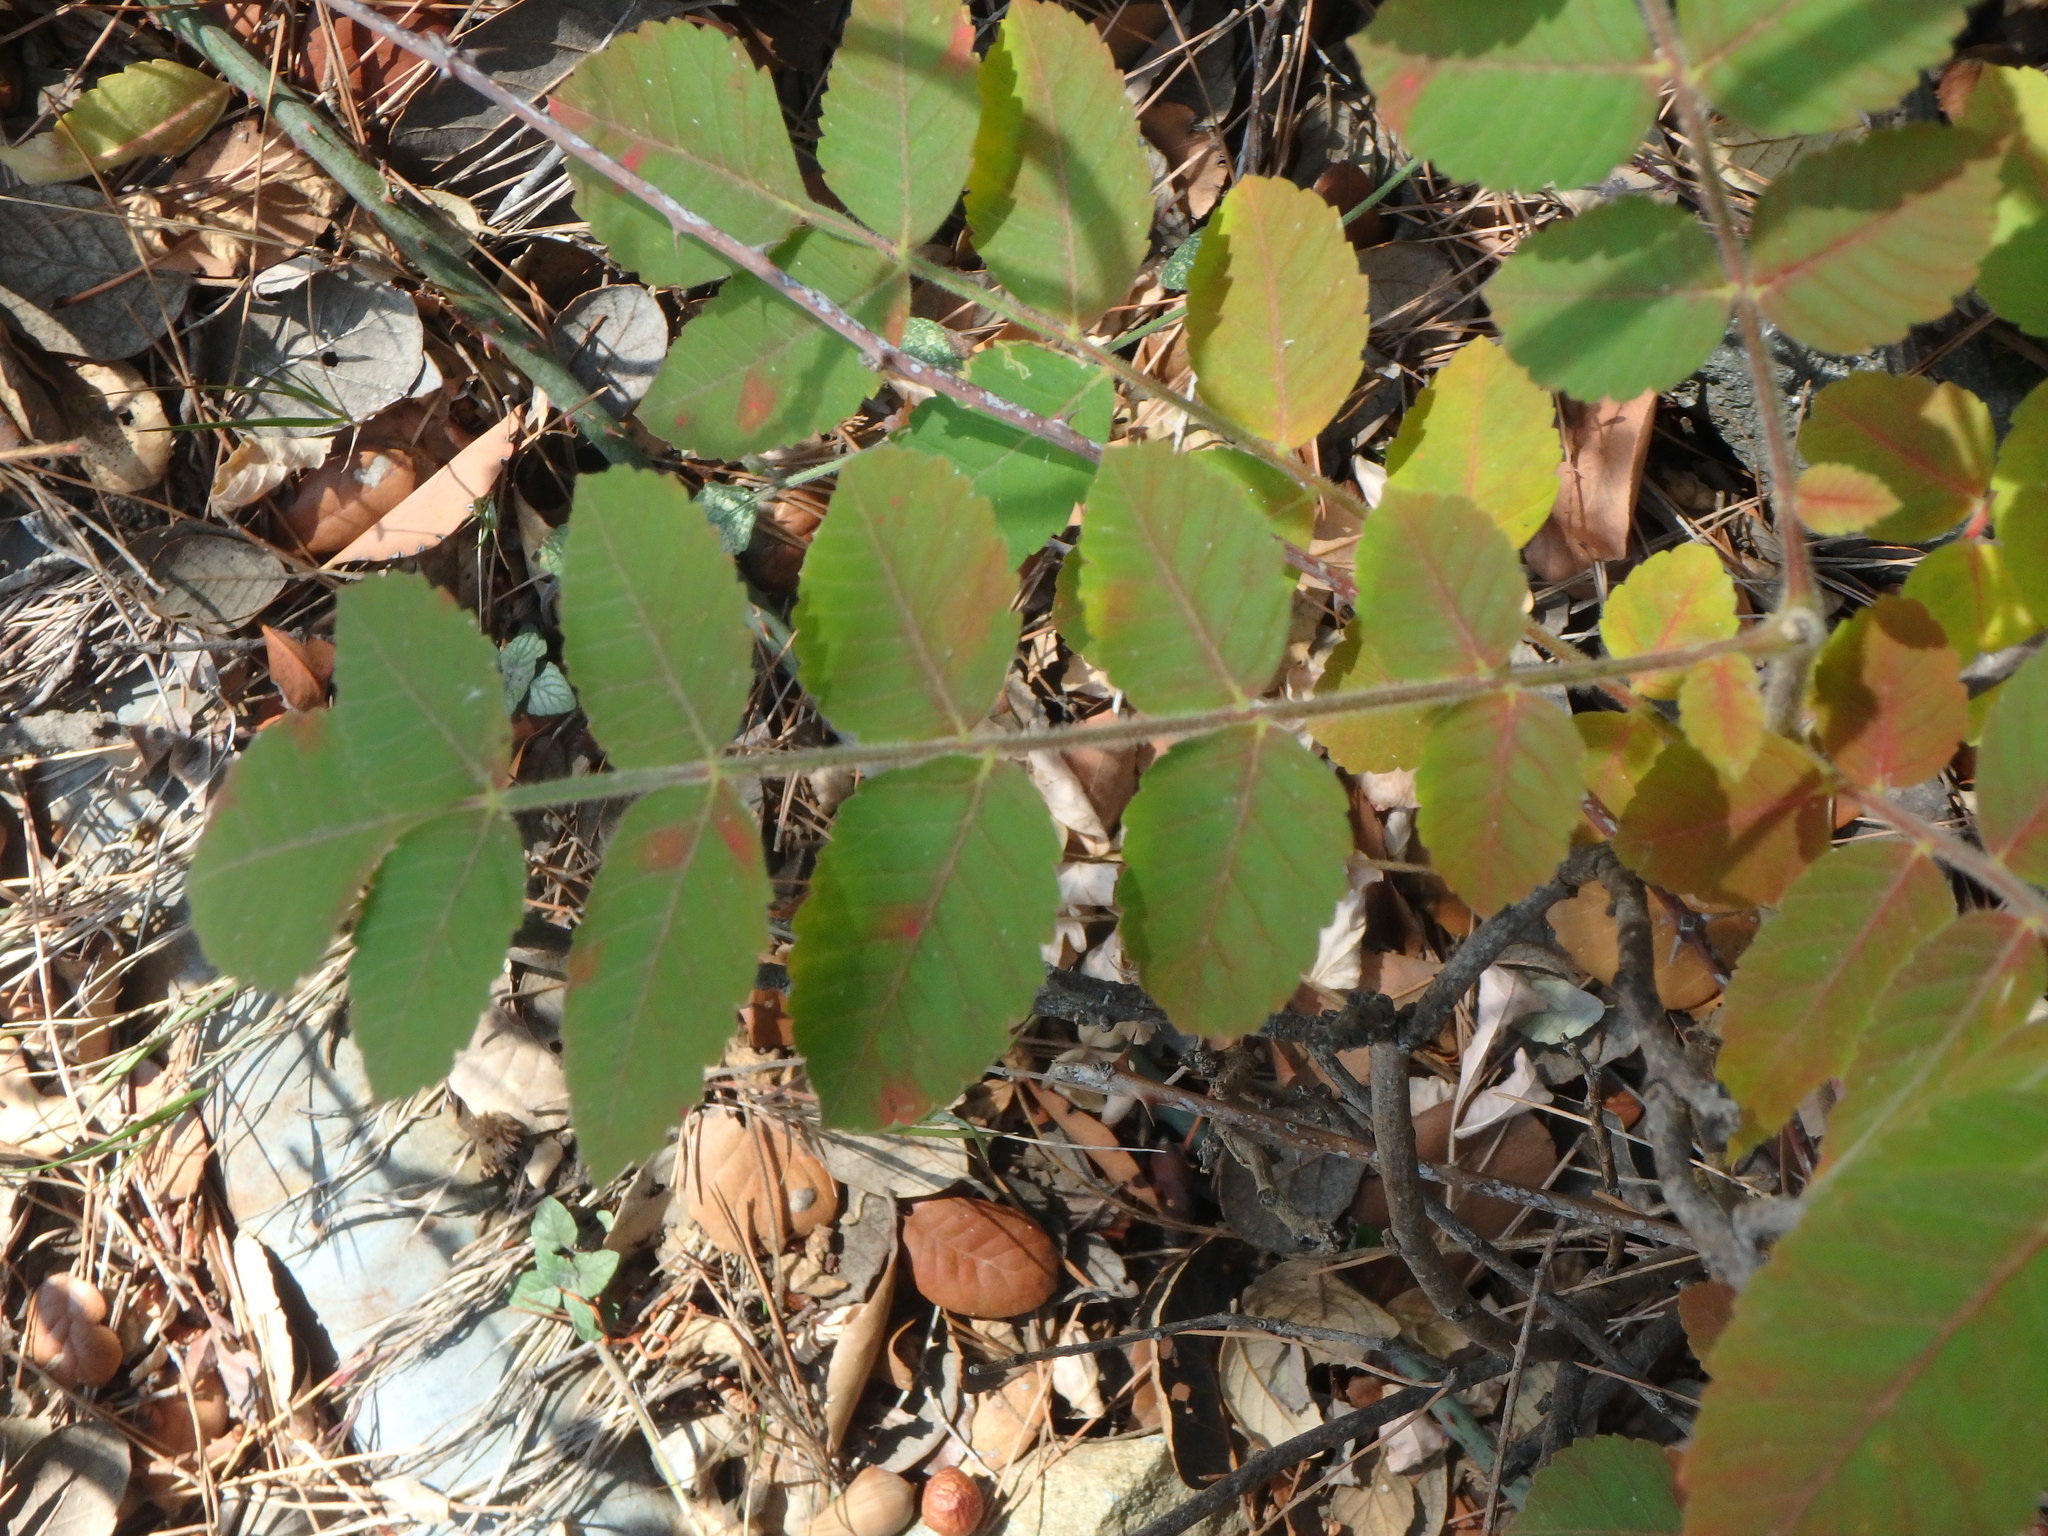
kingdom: Plantae
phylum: Tracheophyta
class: Magnoliopsida
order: Sapindales
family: Anacardiaceae
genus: Rhus
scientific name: Rhus coriaria
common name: Tanner's sumach
